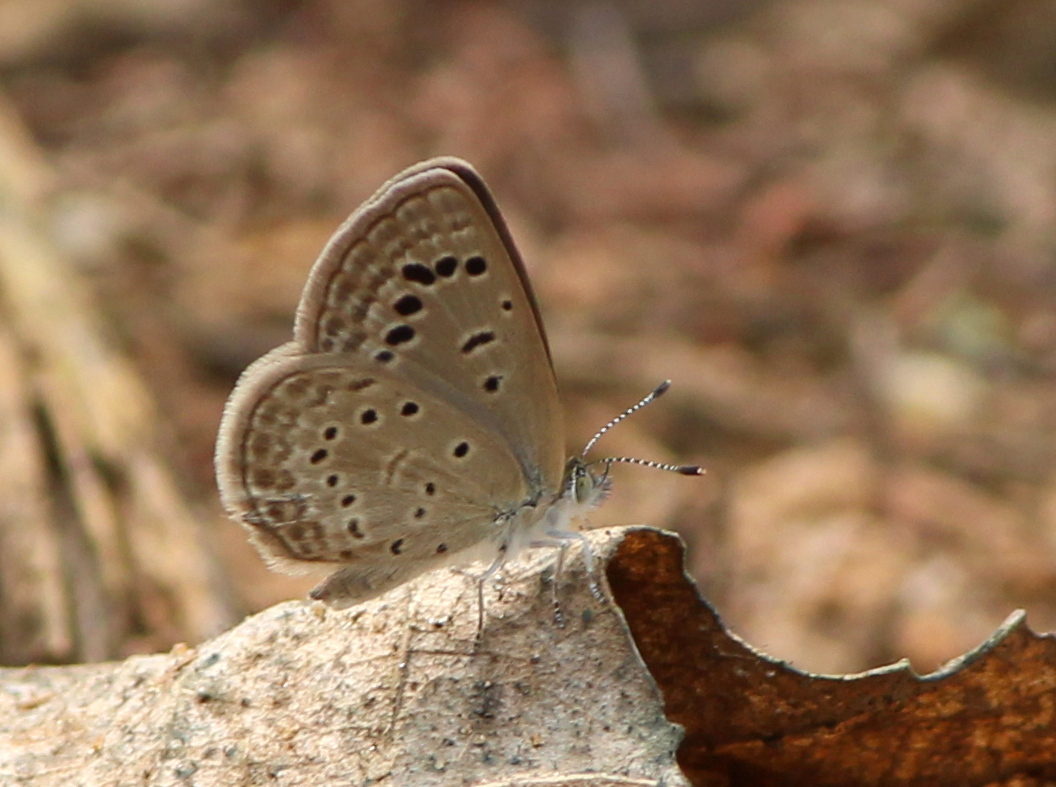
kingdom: Animalia
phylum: Arthropoda
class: Insecta
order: Lepidoptera
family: Lycaenidae
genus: Zizeeria
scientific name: Zizeeria karsandra
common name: Dark grass blue
